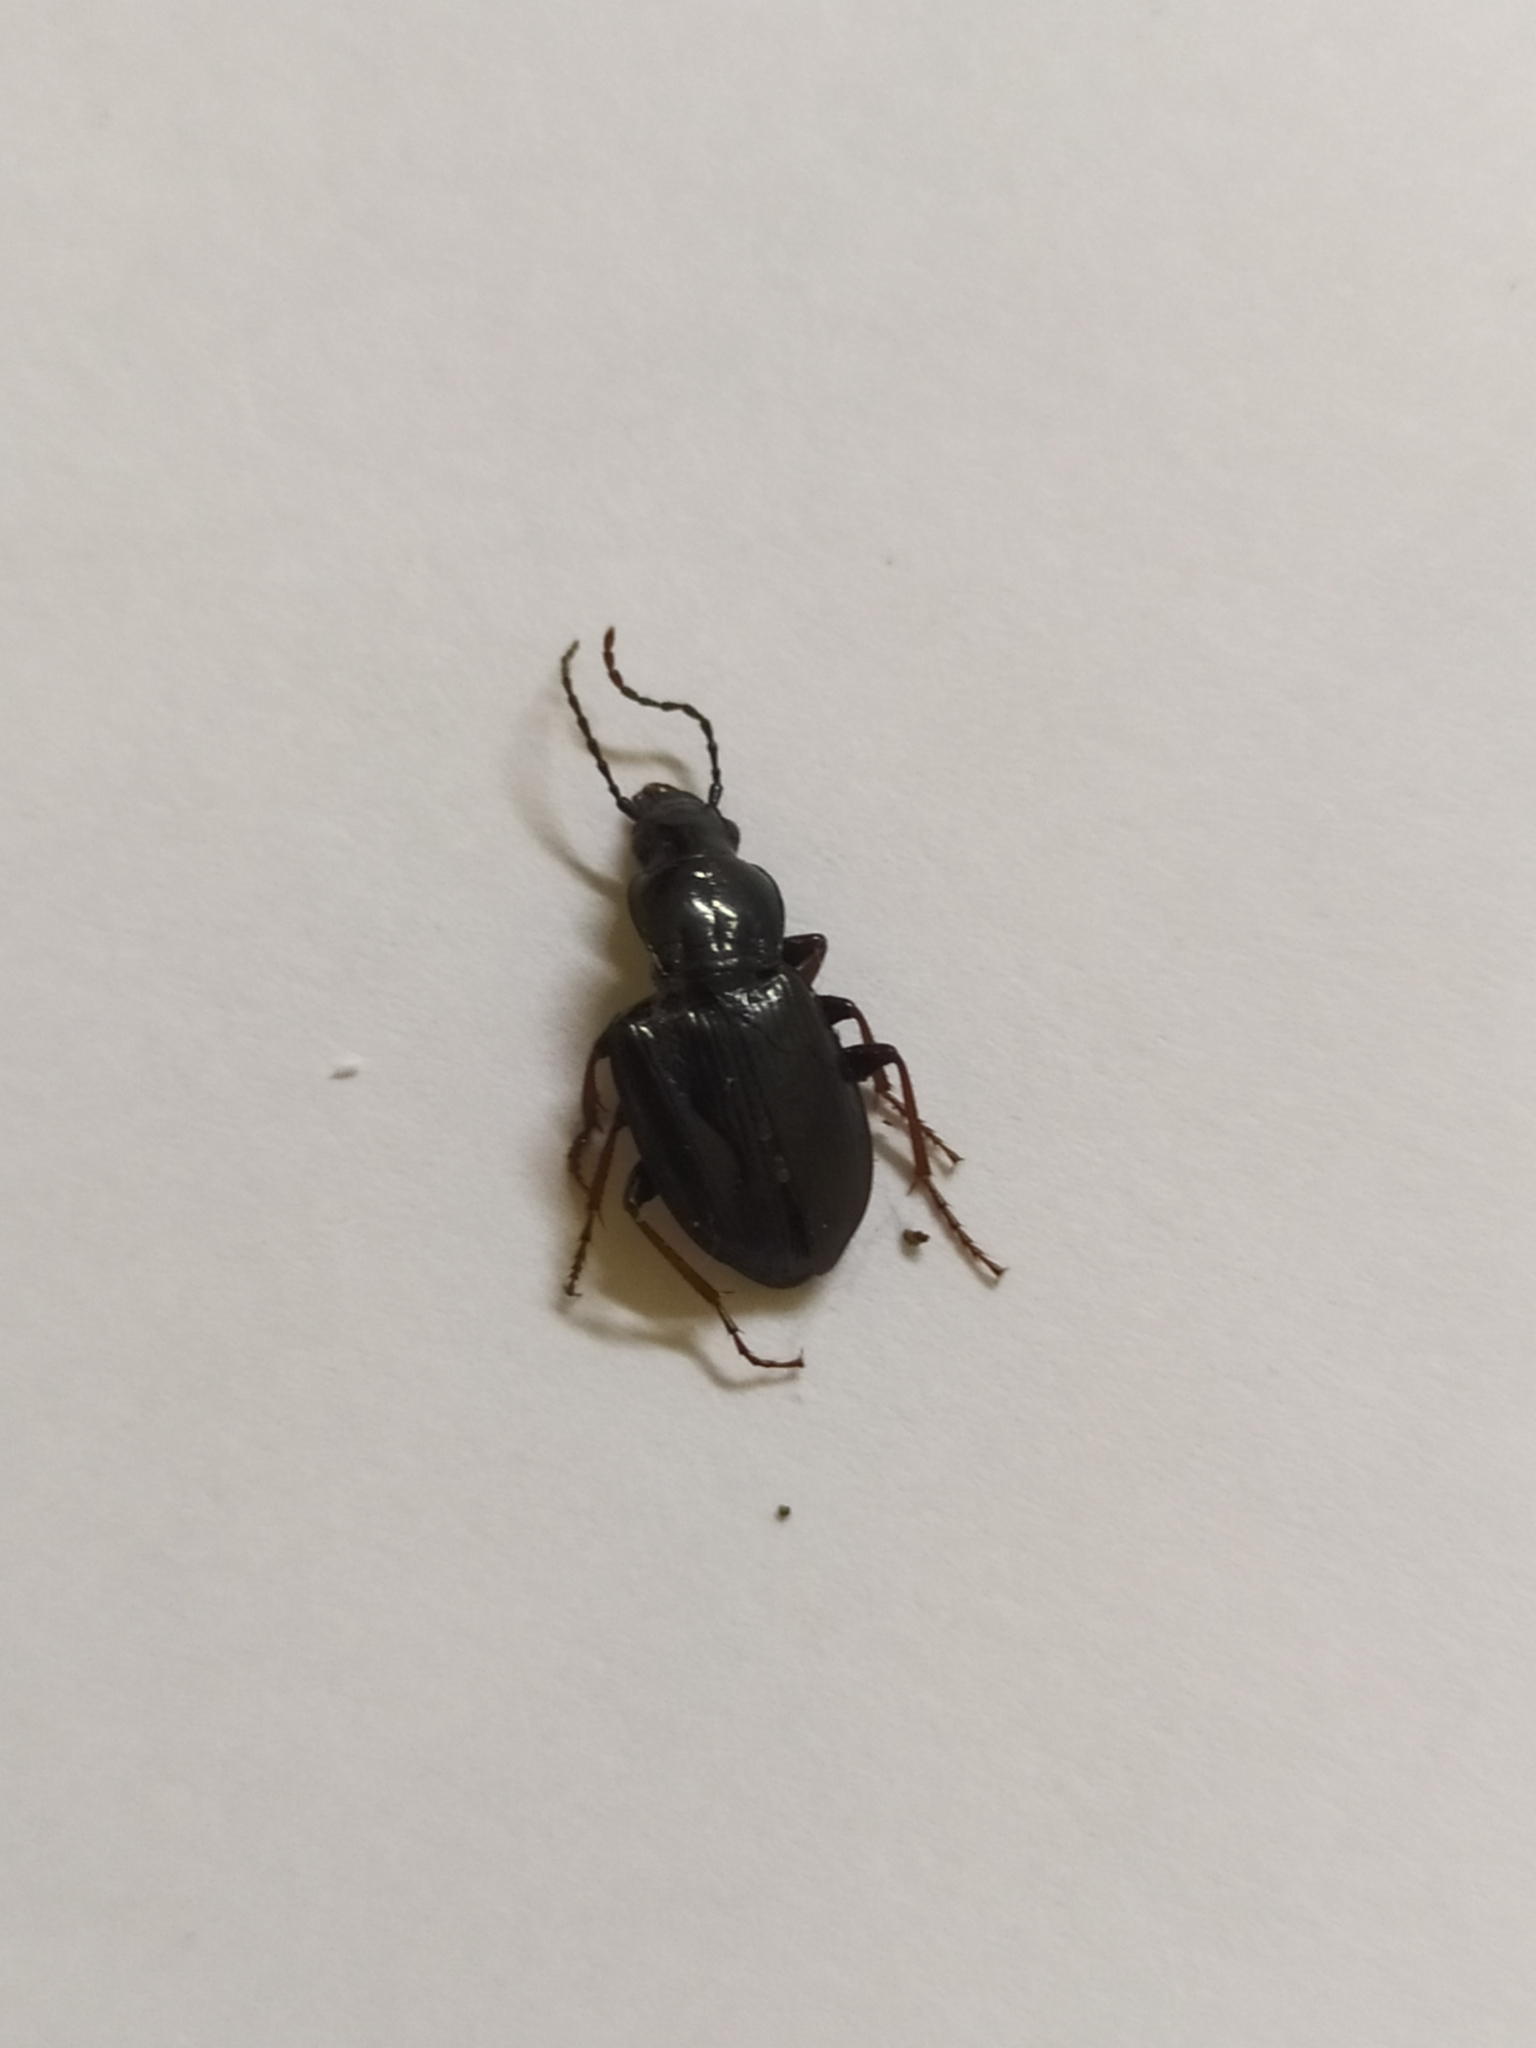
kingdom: Animalia
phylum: Arthropoda
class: Insecta
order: Coleoptera
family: Carabidae
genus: Pterostichus
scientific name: Pterostichus oblongopunctatus
